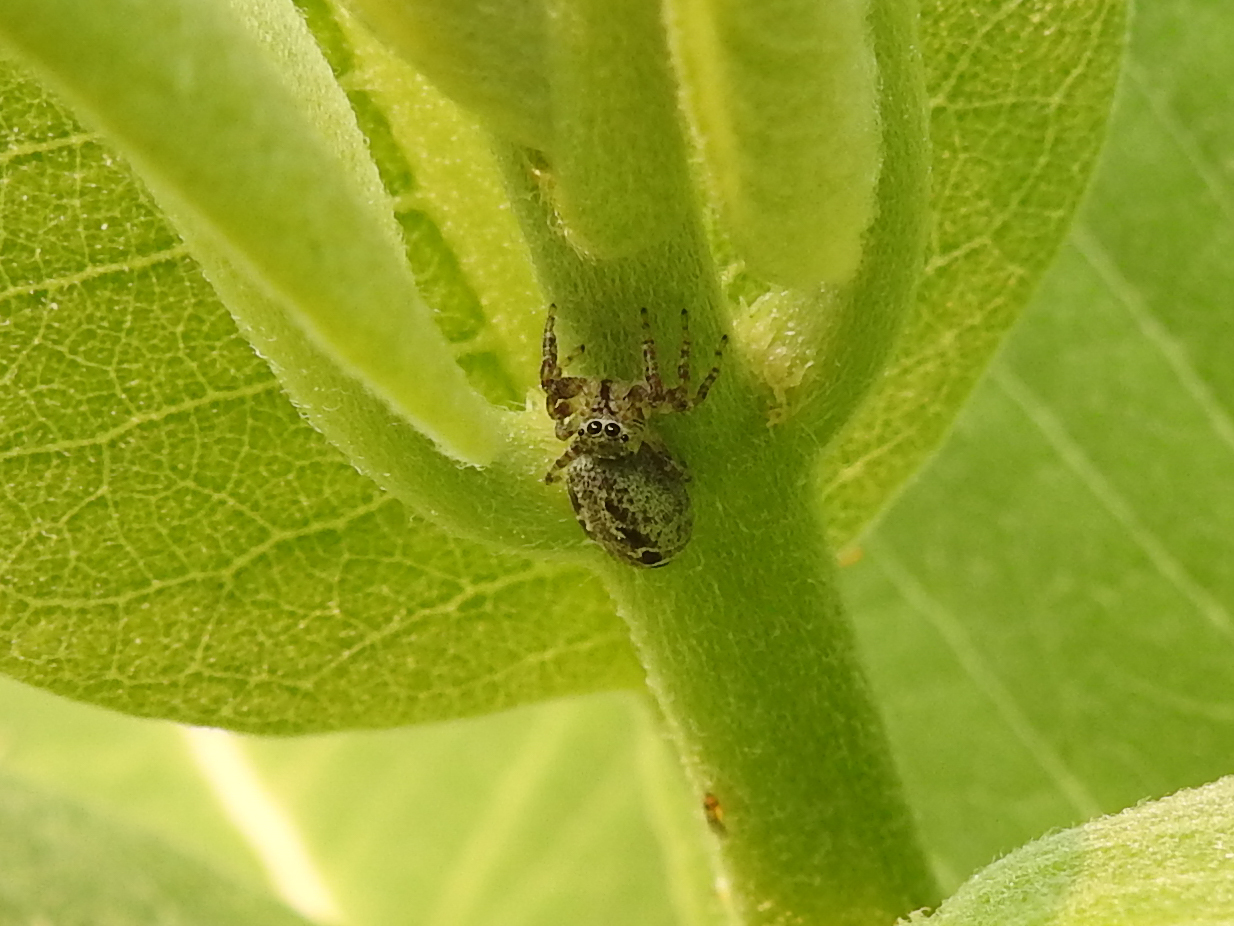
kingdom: Animalia
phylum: Arthropoda
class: Arachnida
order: Araneae
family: Salticidae
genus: Pelegrina
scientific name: Pelegrina proterva
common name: Common white-cheeked jumping spider
